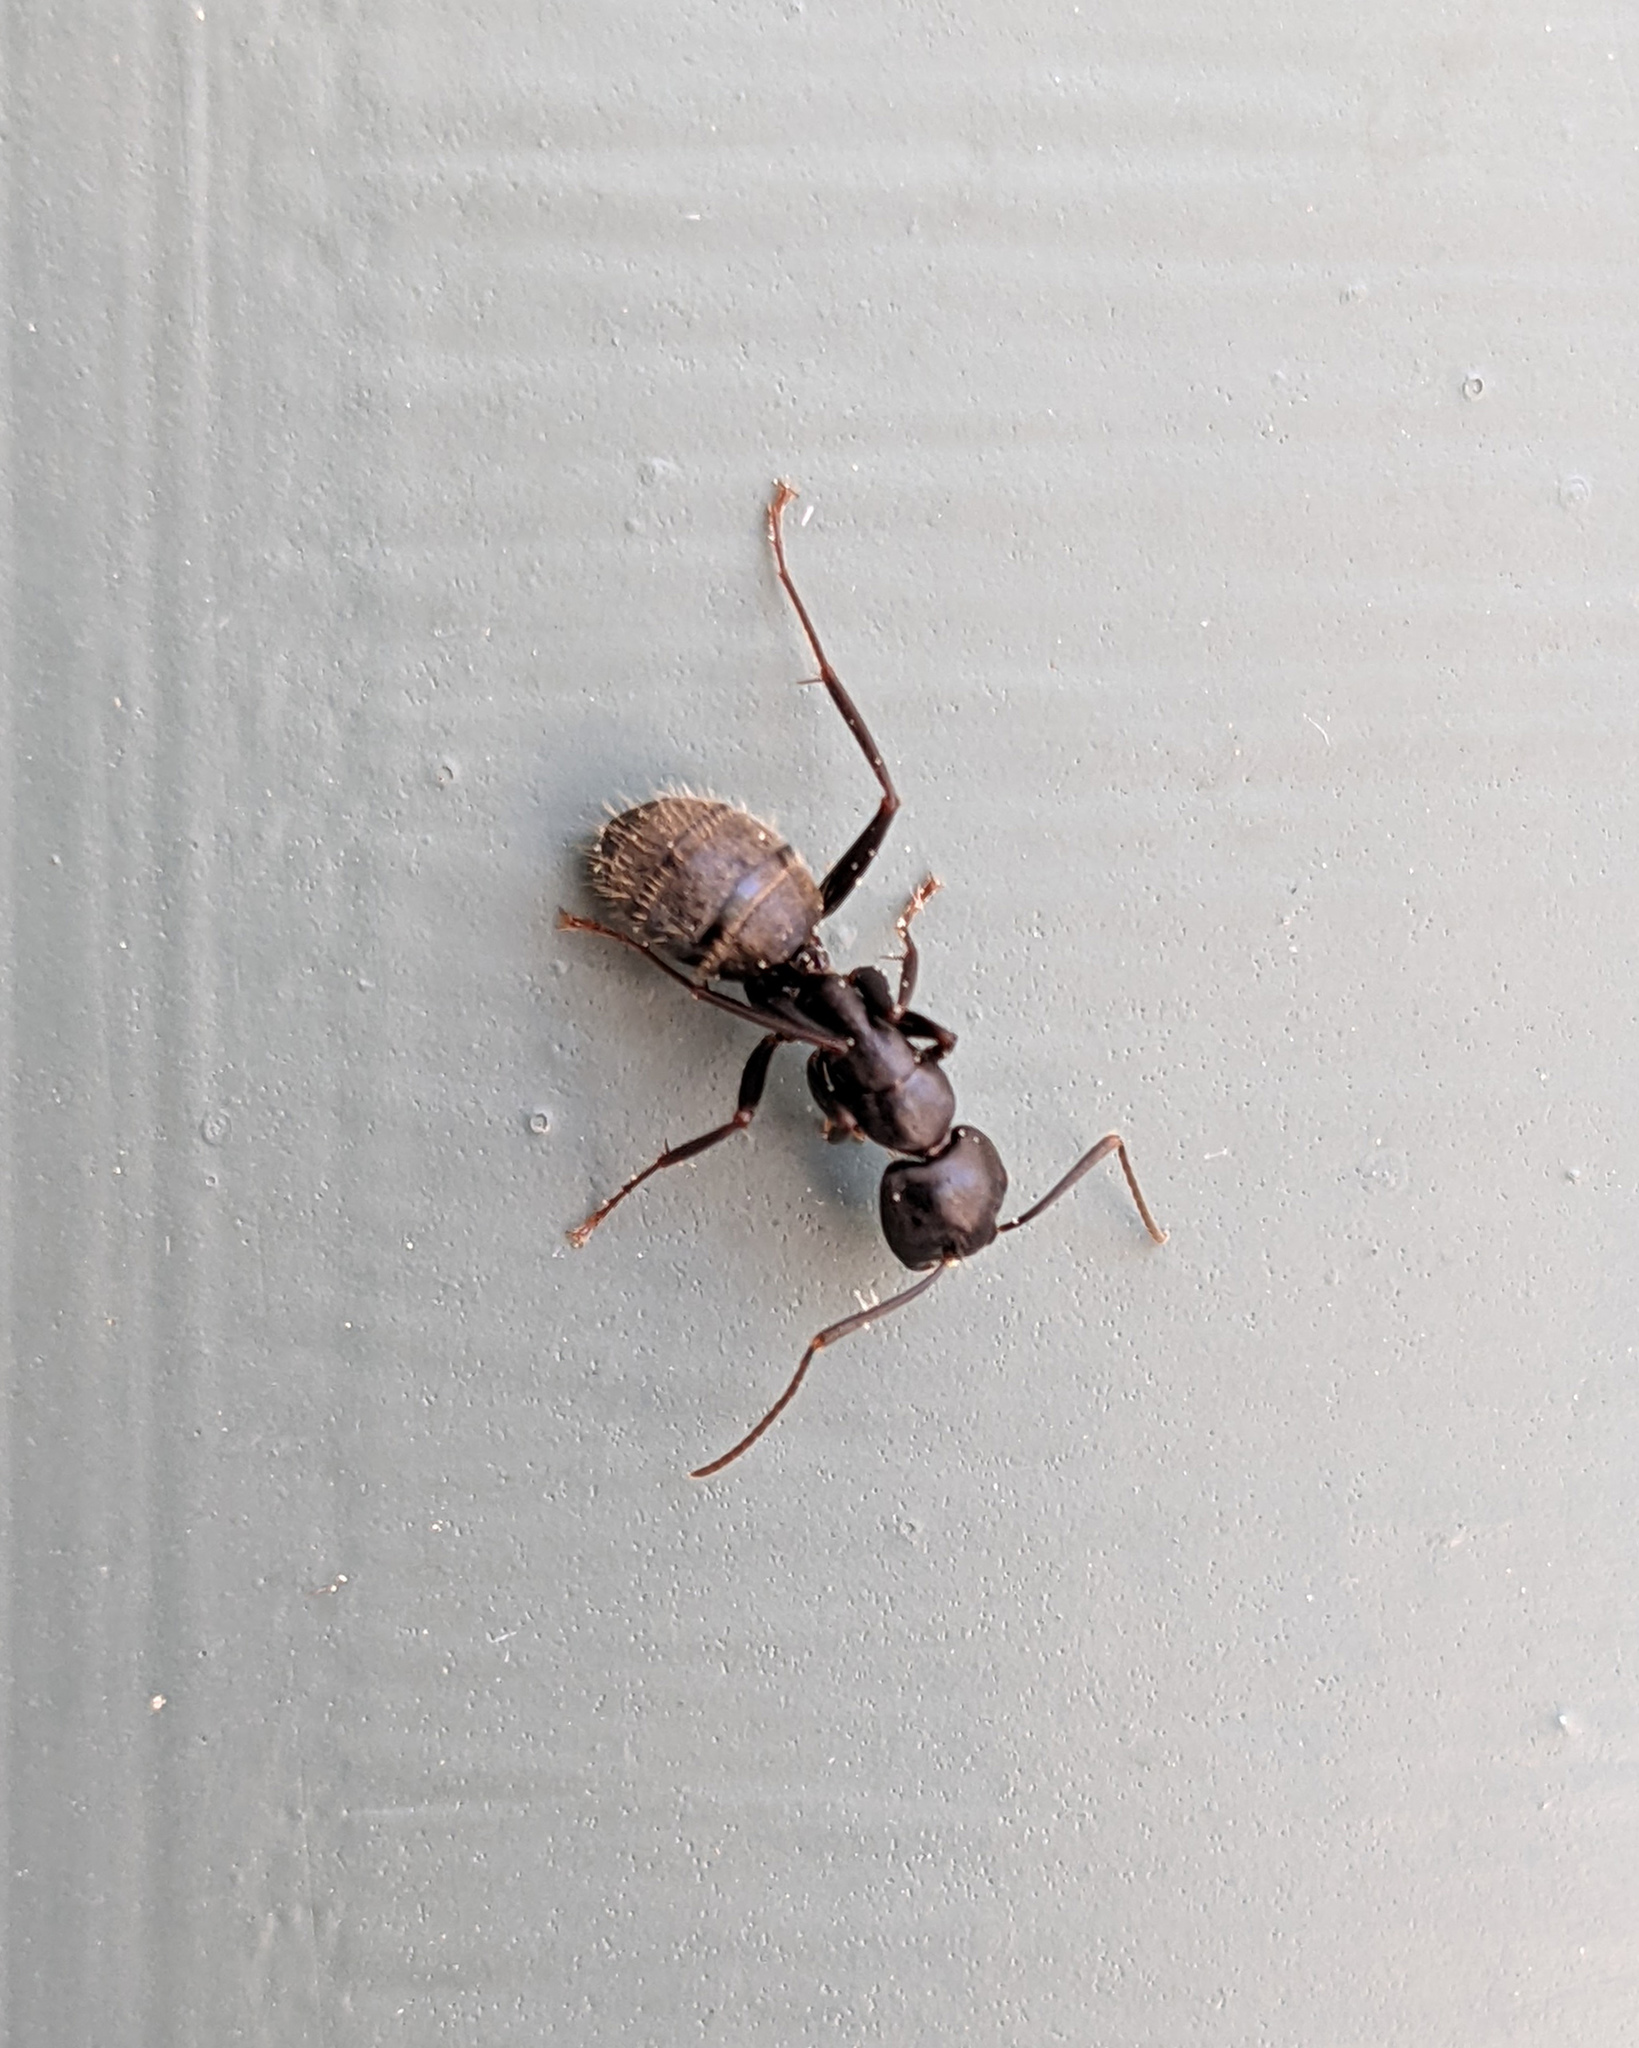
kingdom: Animalia
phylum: Arthropoda
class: Insecta
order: Hymenoptera
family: Formicidae
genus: Camponotus
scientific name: Camponotus pennsylvanicus
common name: Black carpenter ant
